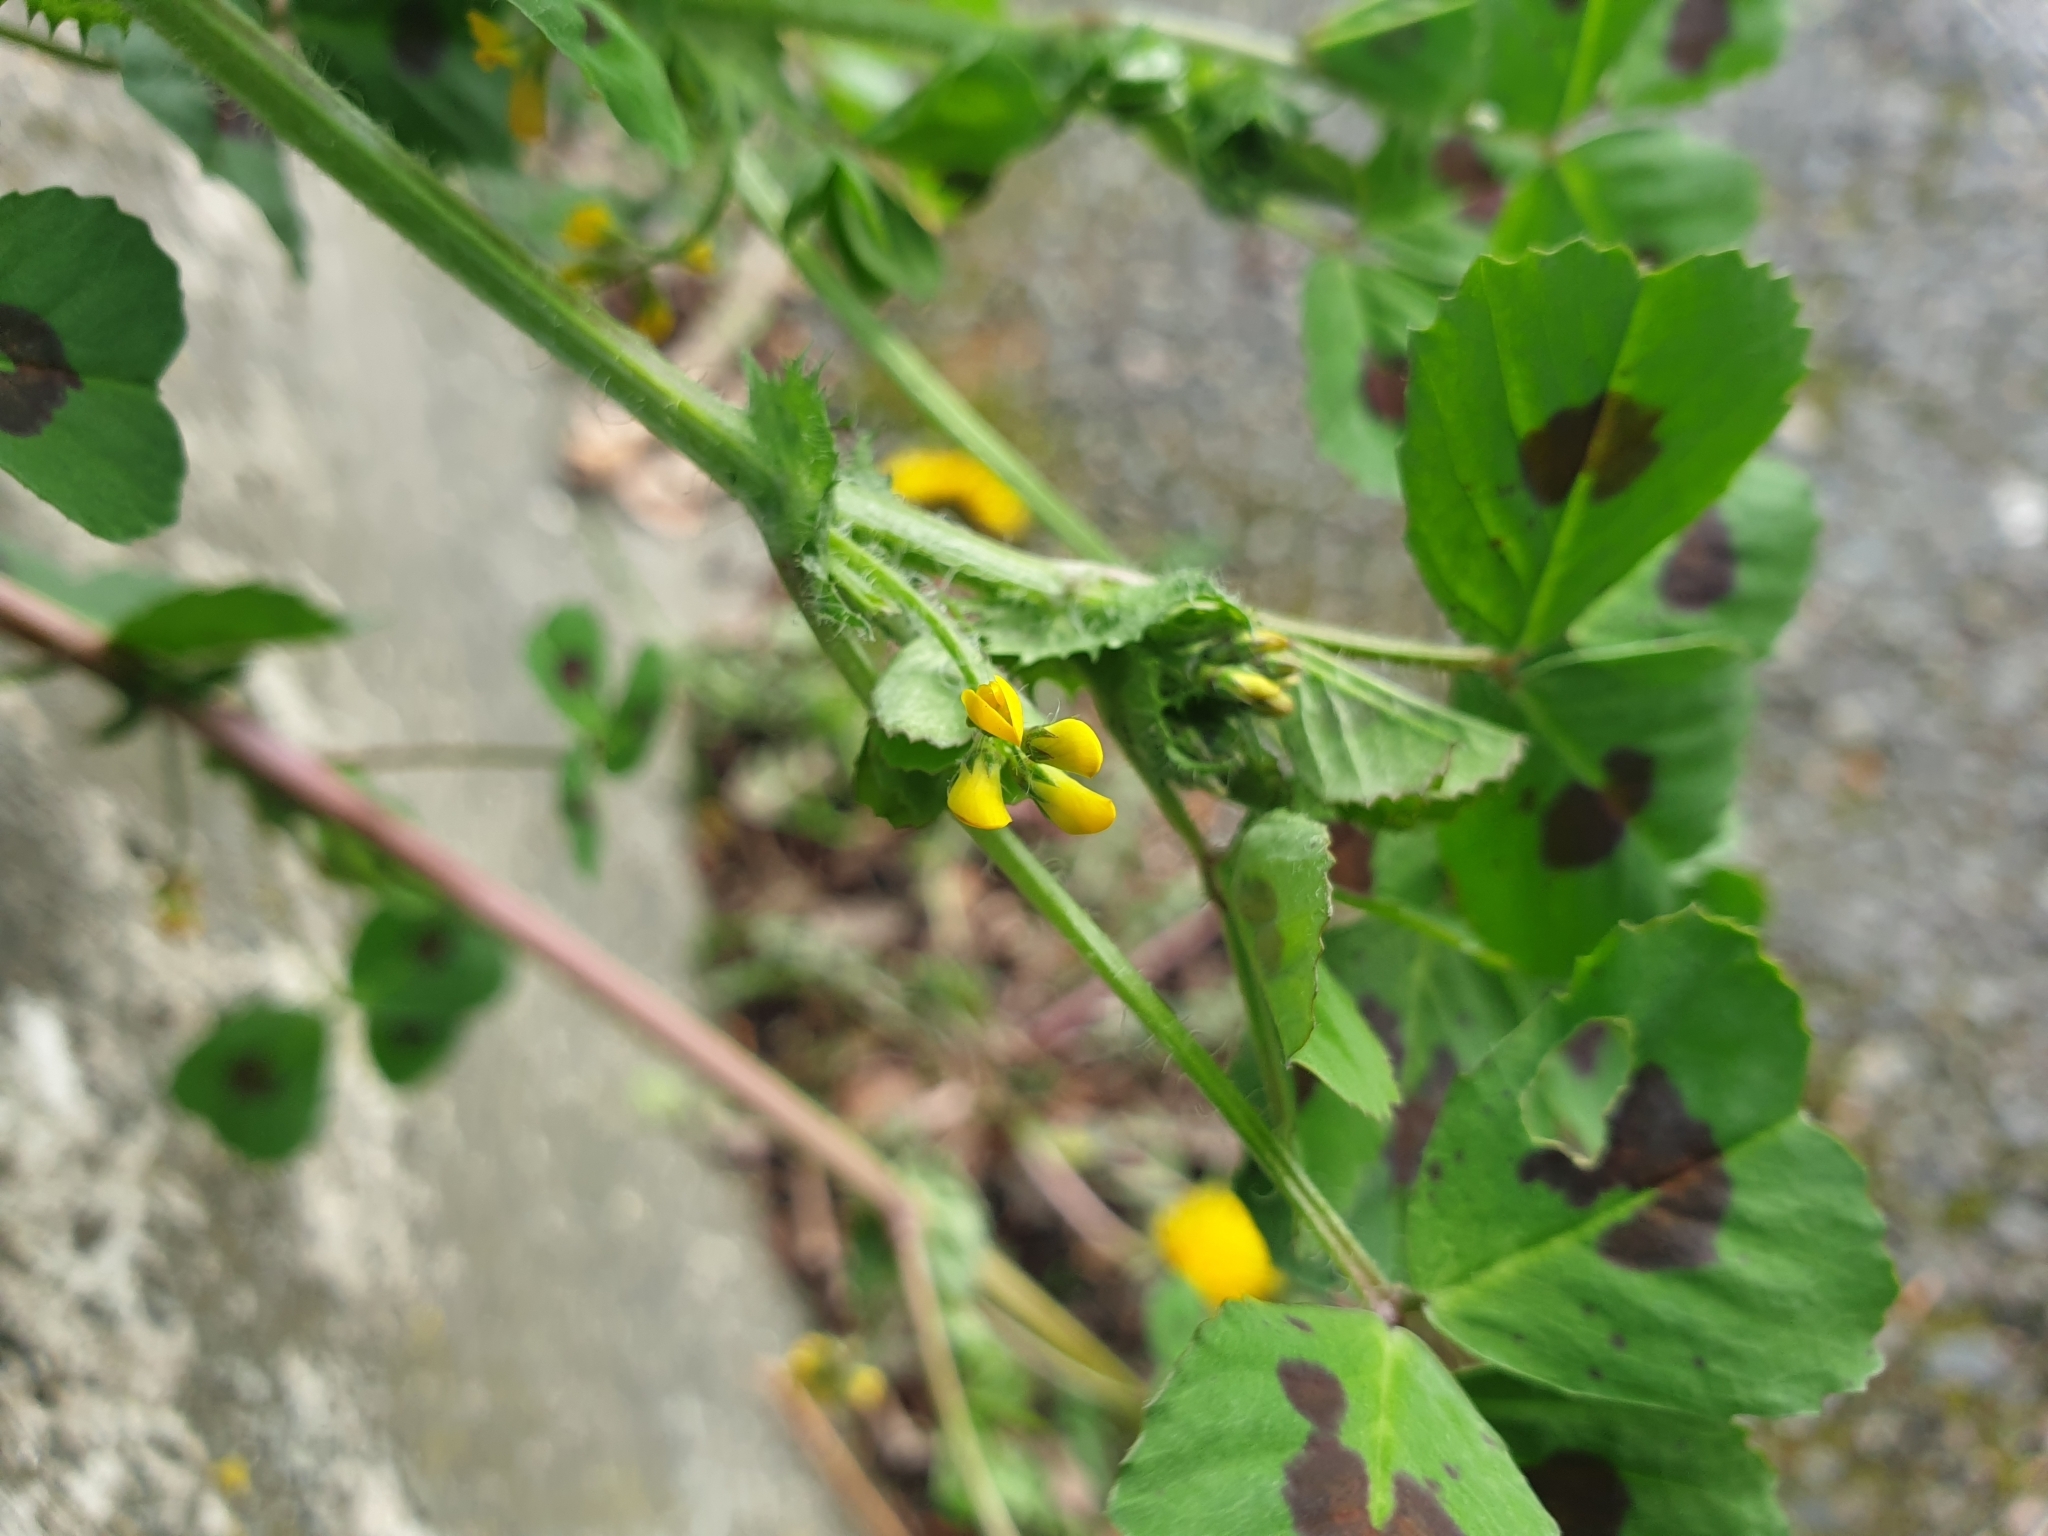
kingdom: Plantae
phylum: Tracheophyta
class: Magnoliopsida
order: Fabales
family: Fabaceae
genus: Medicago
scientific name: Medicago arabica
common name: Spotted medick
